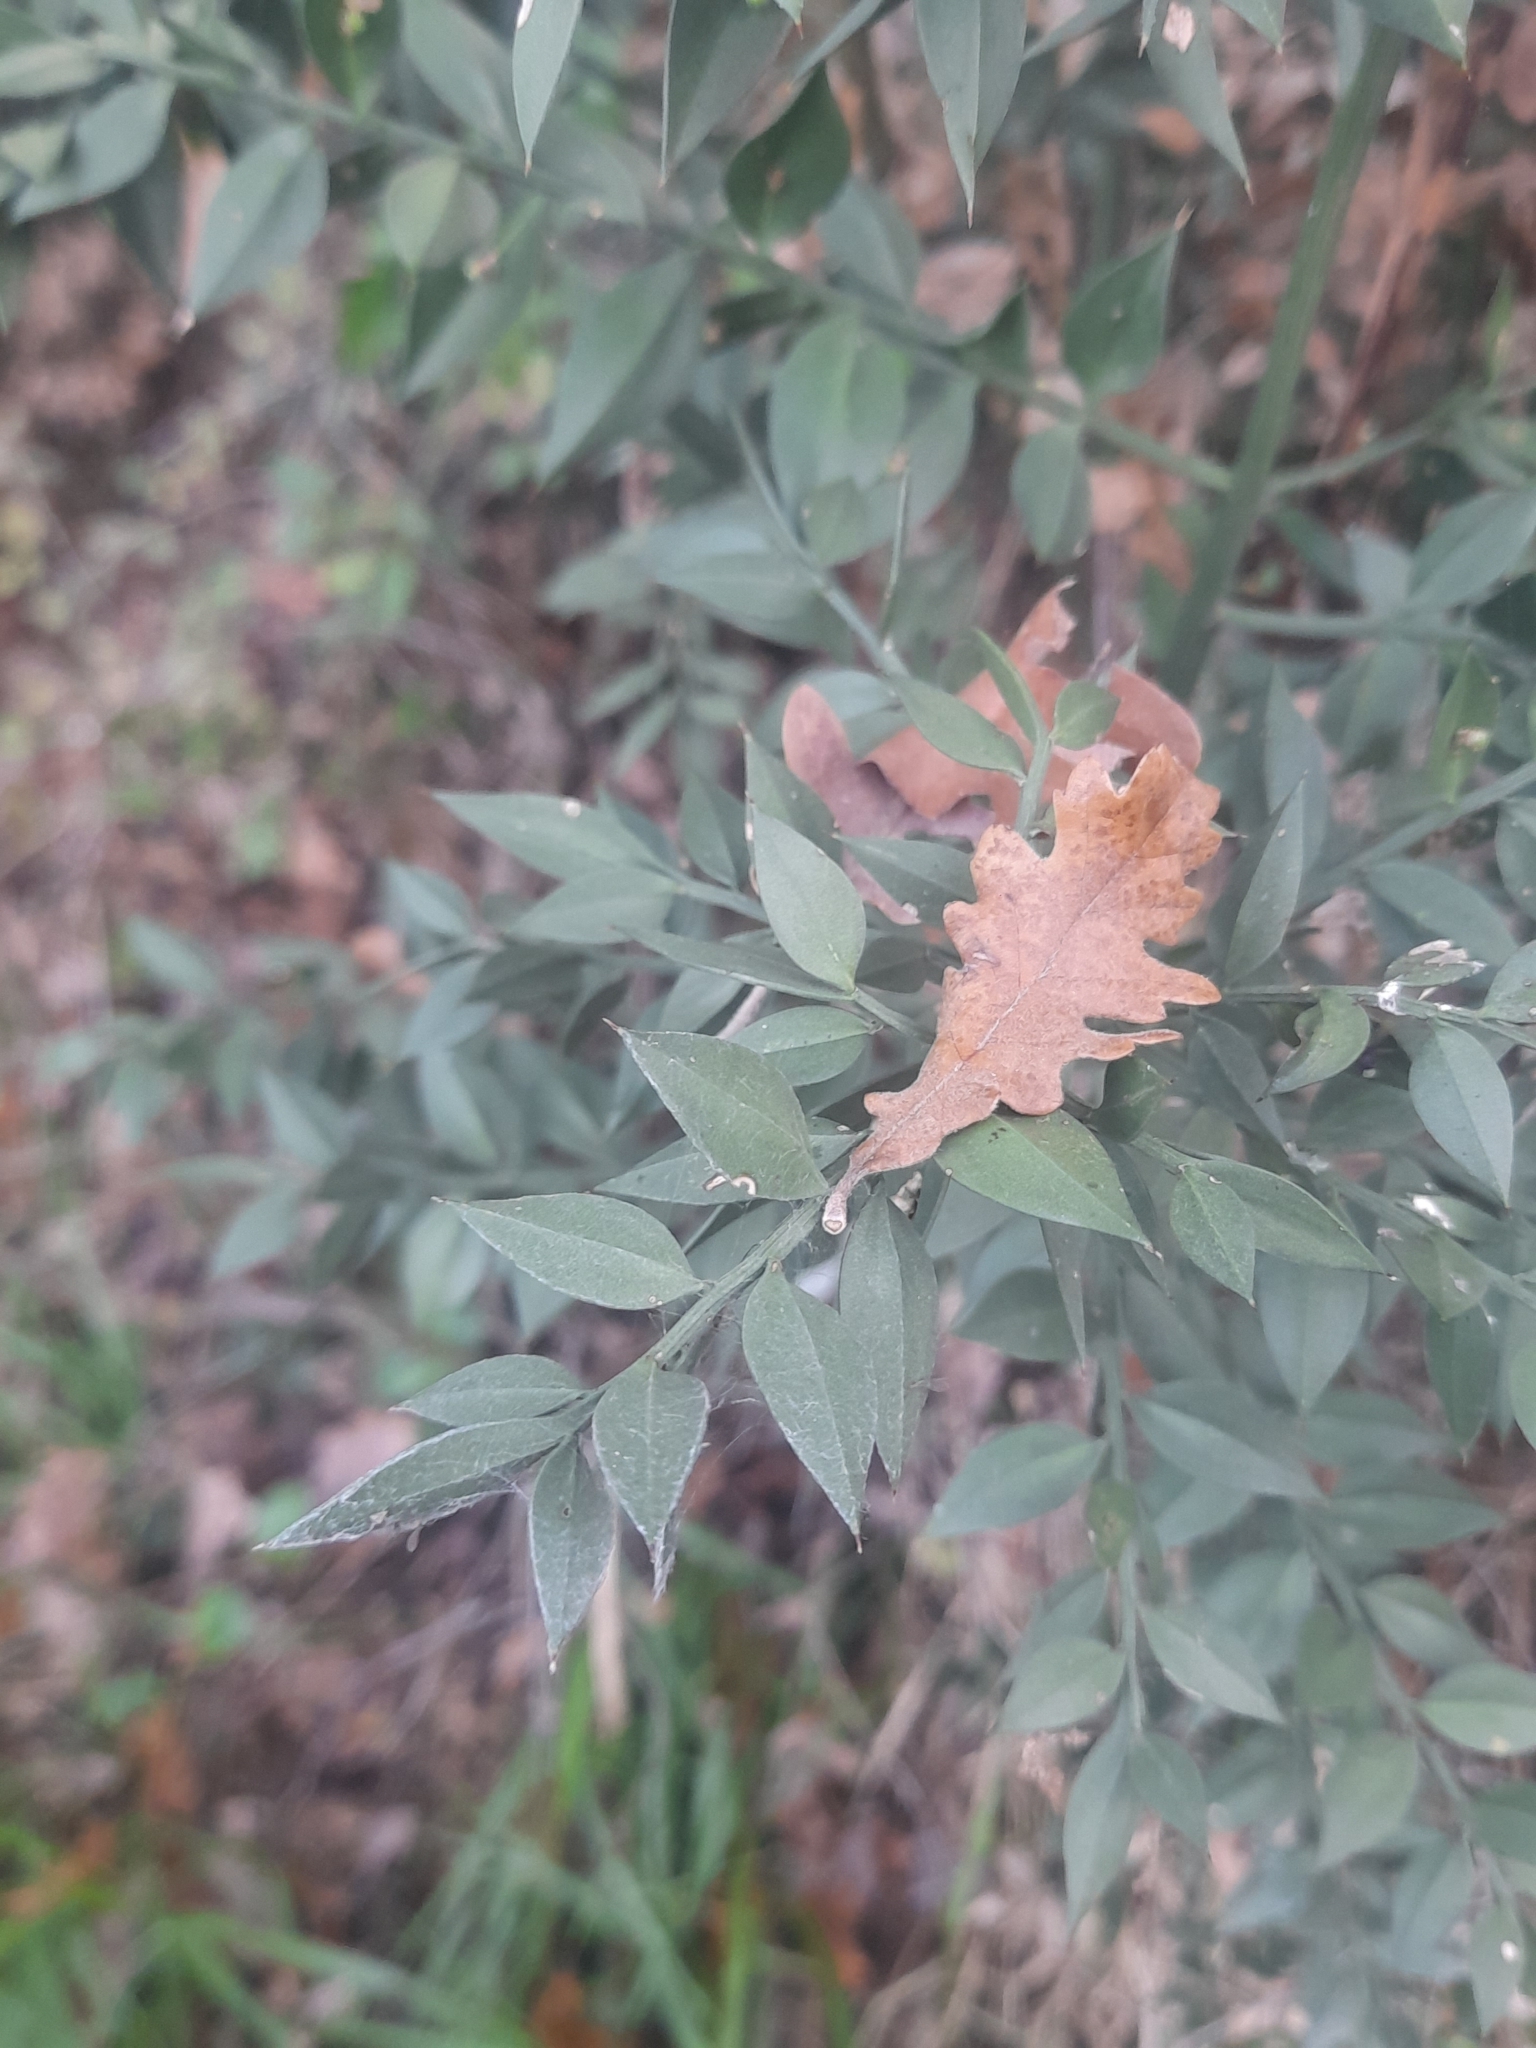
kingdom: Plantae
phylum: Tracheophyta
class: Liliopsida
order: Asparagales
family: Asparagaceae
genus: Ruscus
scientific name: Ruscus aculeatus
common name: Butcher's-broom
